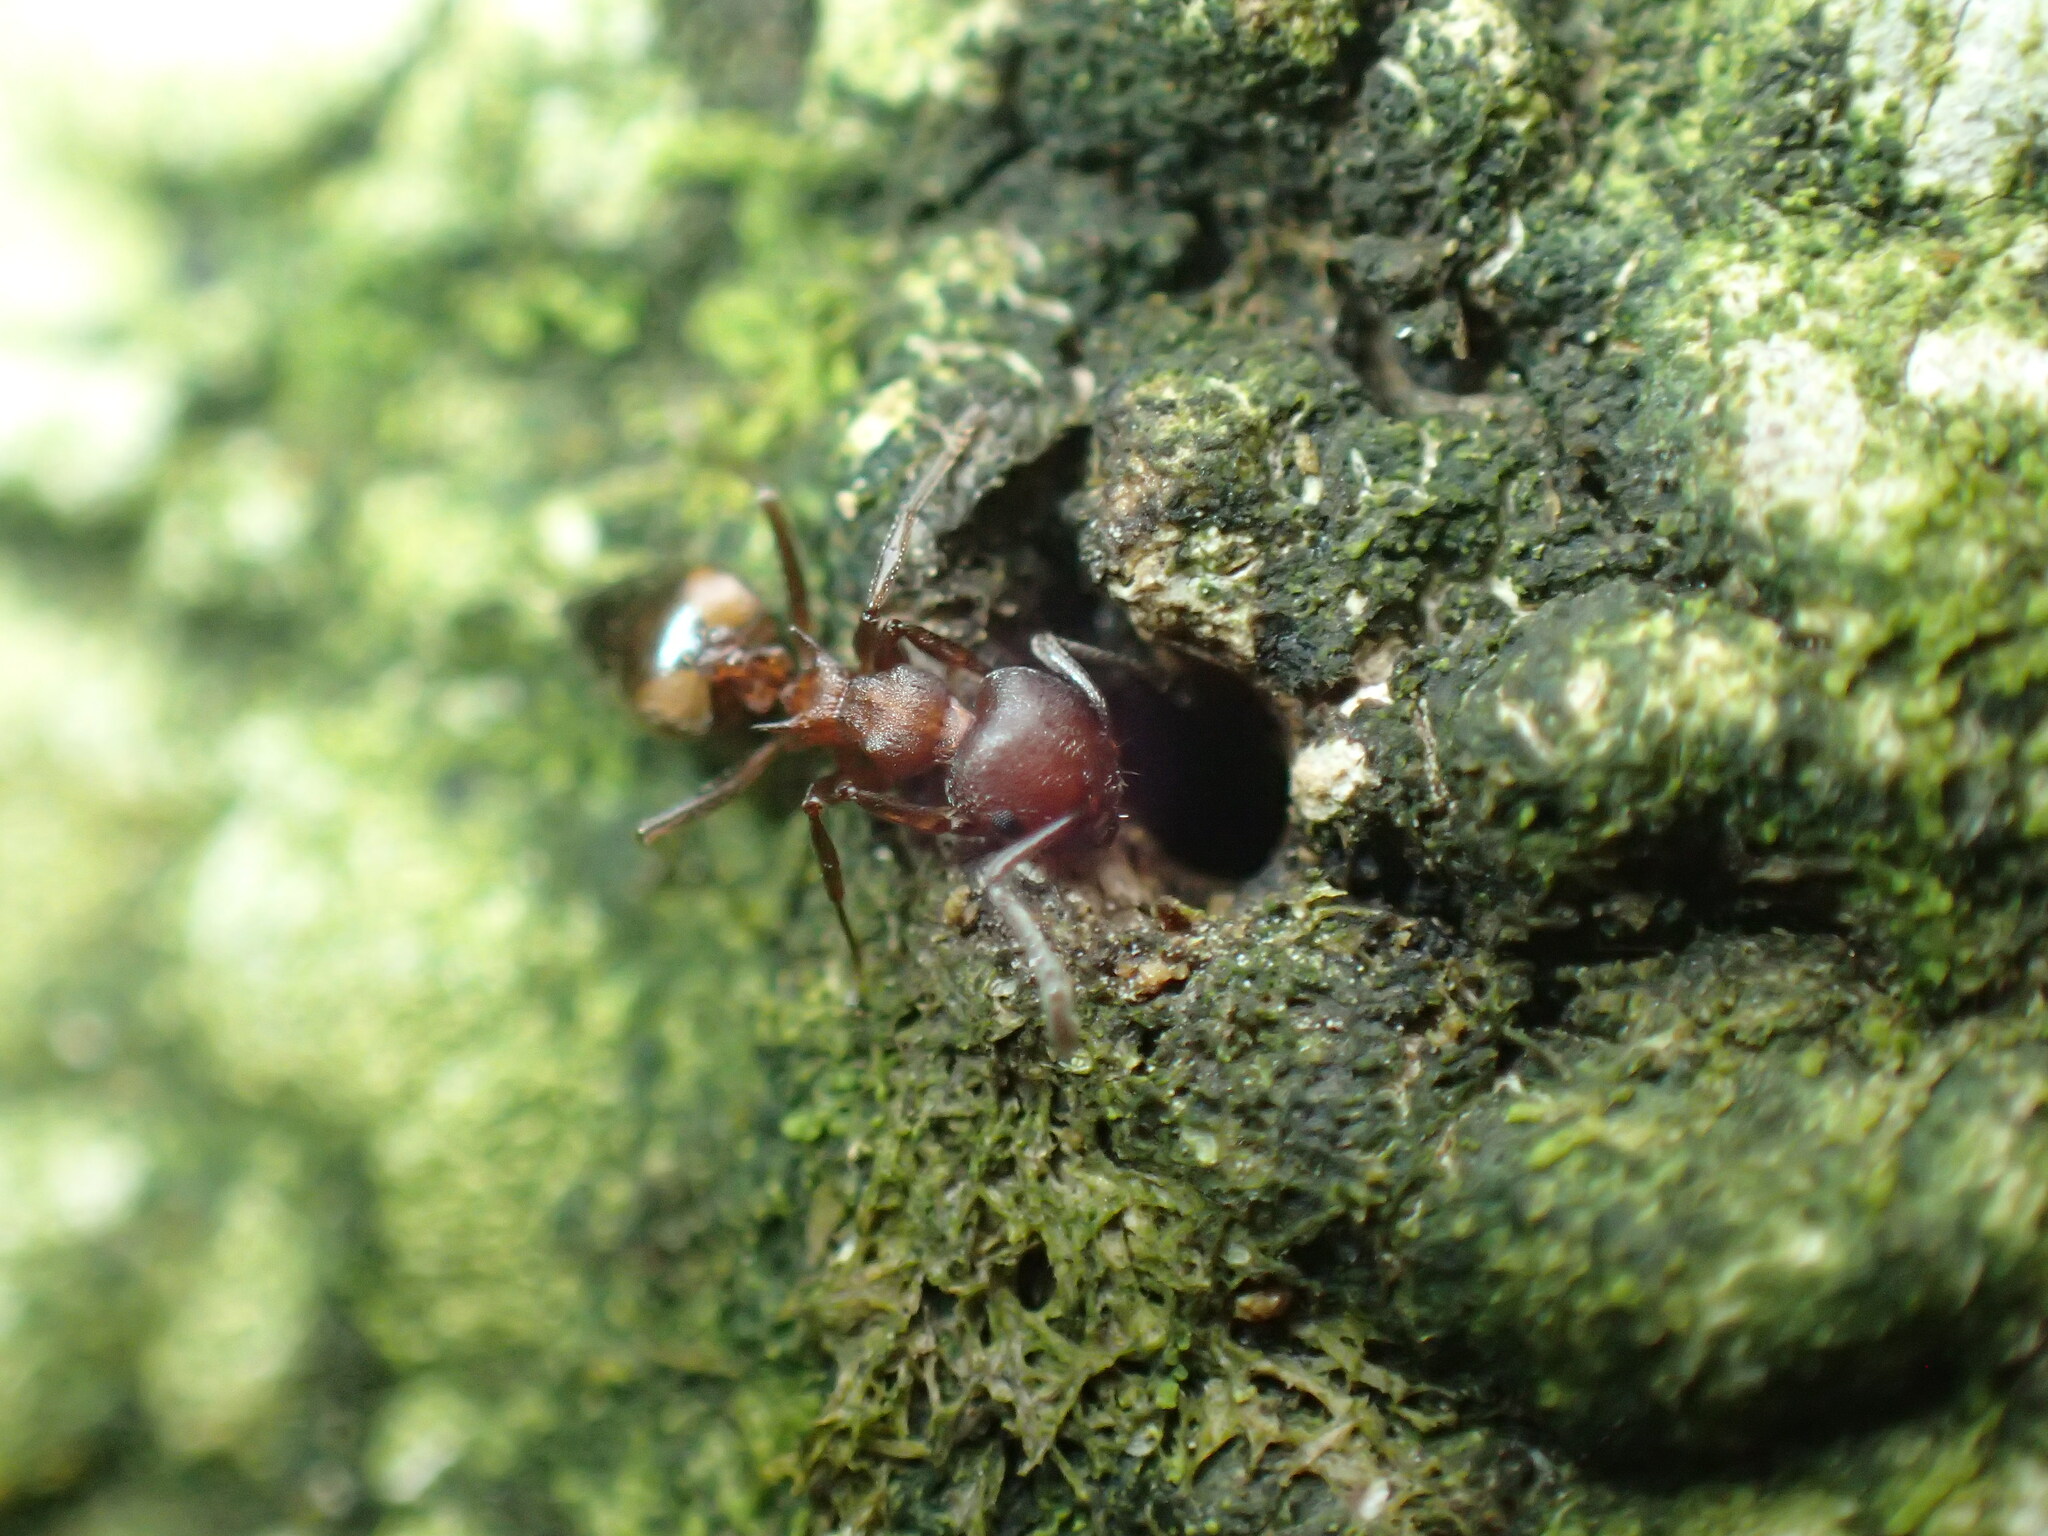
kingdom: Animalia
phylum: Arthropoda
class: Insecta
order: Hymenoptera
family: Formicidae
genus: Crematogaster
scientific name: Crematogaster castanea
